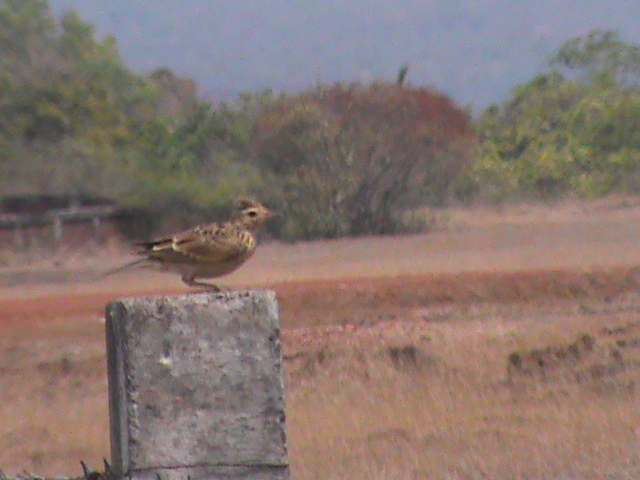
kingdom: Animalia
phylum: Chordata
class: Aves
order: Passeriformes
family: Alaudidae
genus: Alauda
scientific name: Alauda gulgula
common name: Oriental skylark
